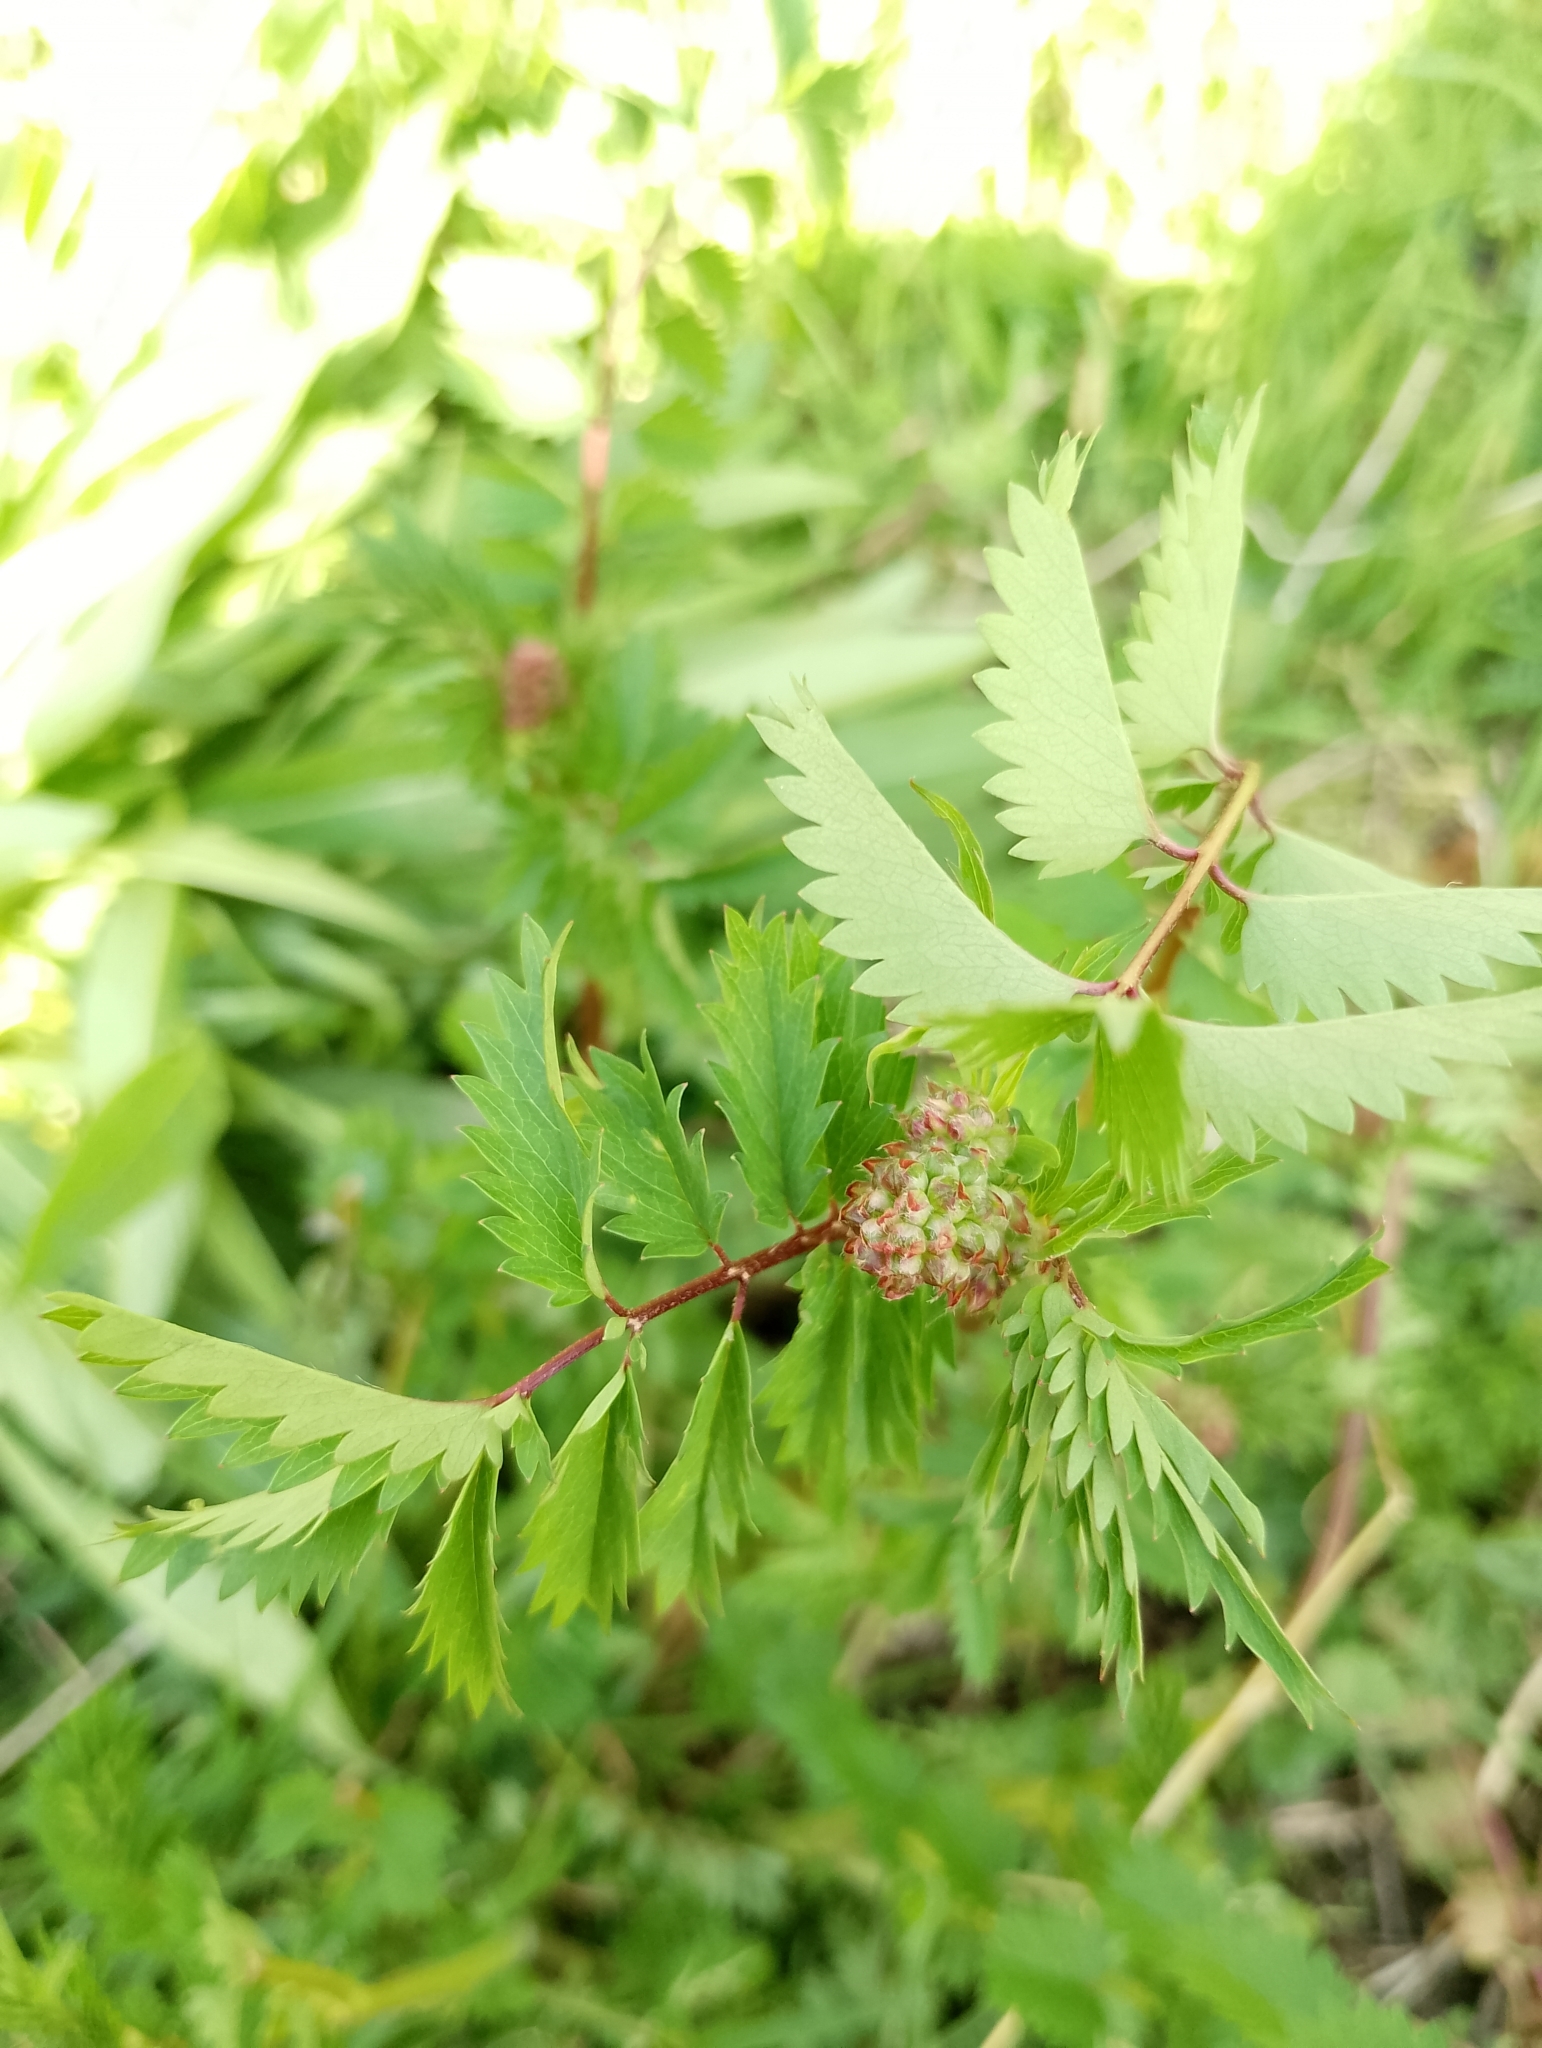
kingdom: Plantae
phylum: Tracheophyta
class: Magnoliopsida
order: Rosales
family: Rosaceae
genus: Poterium
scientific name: Poterium sanguisorba
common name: Salad burnet
